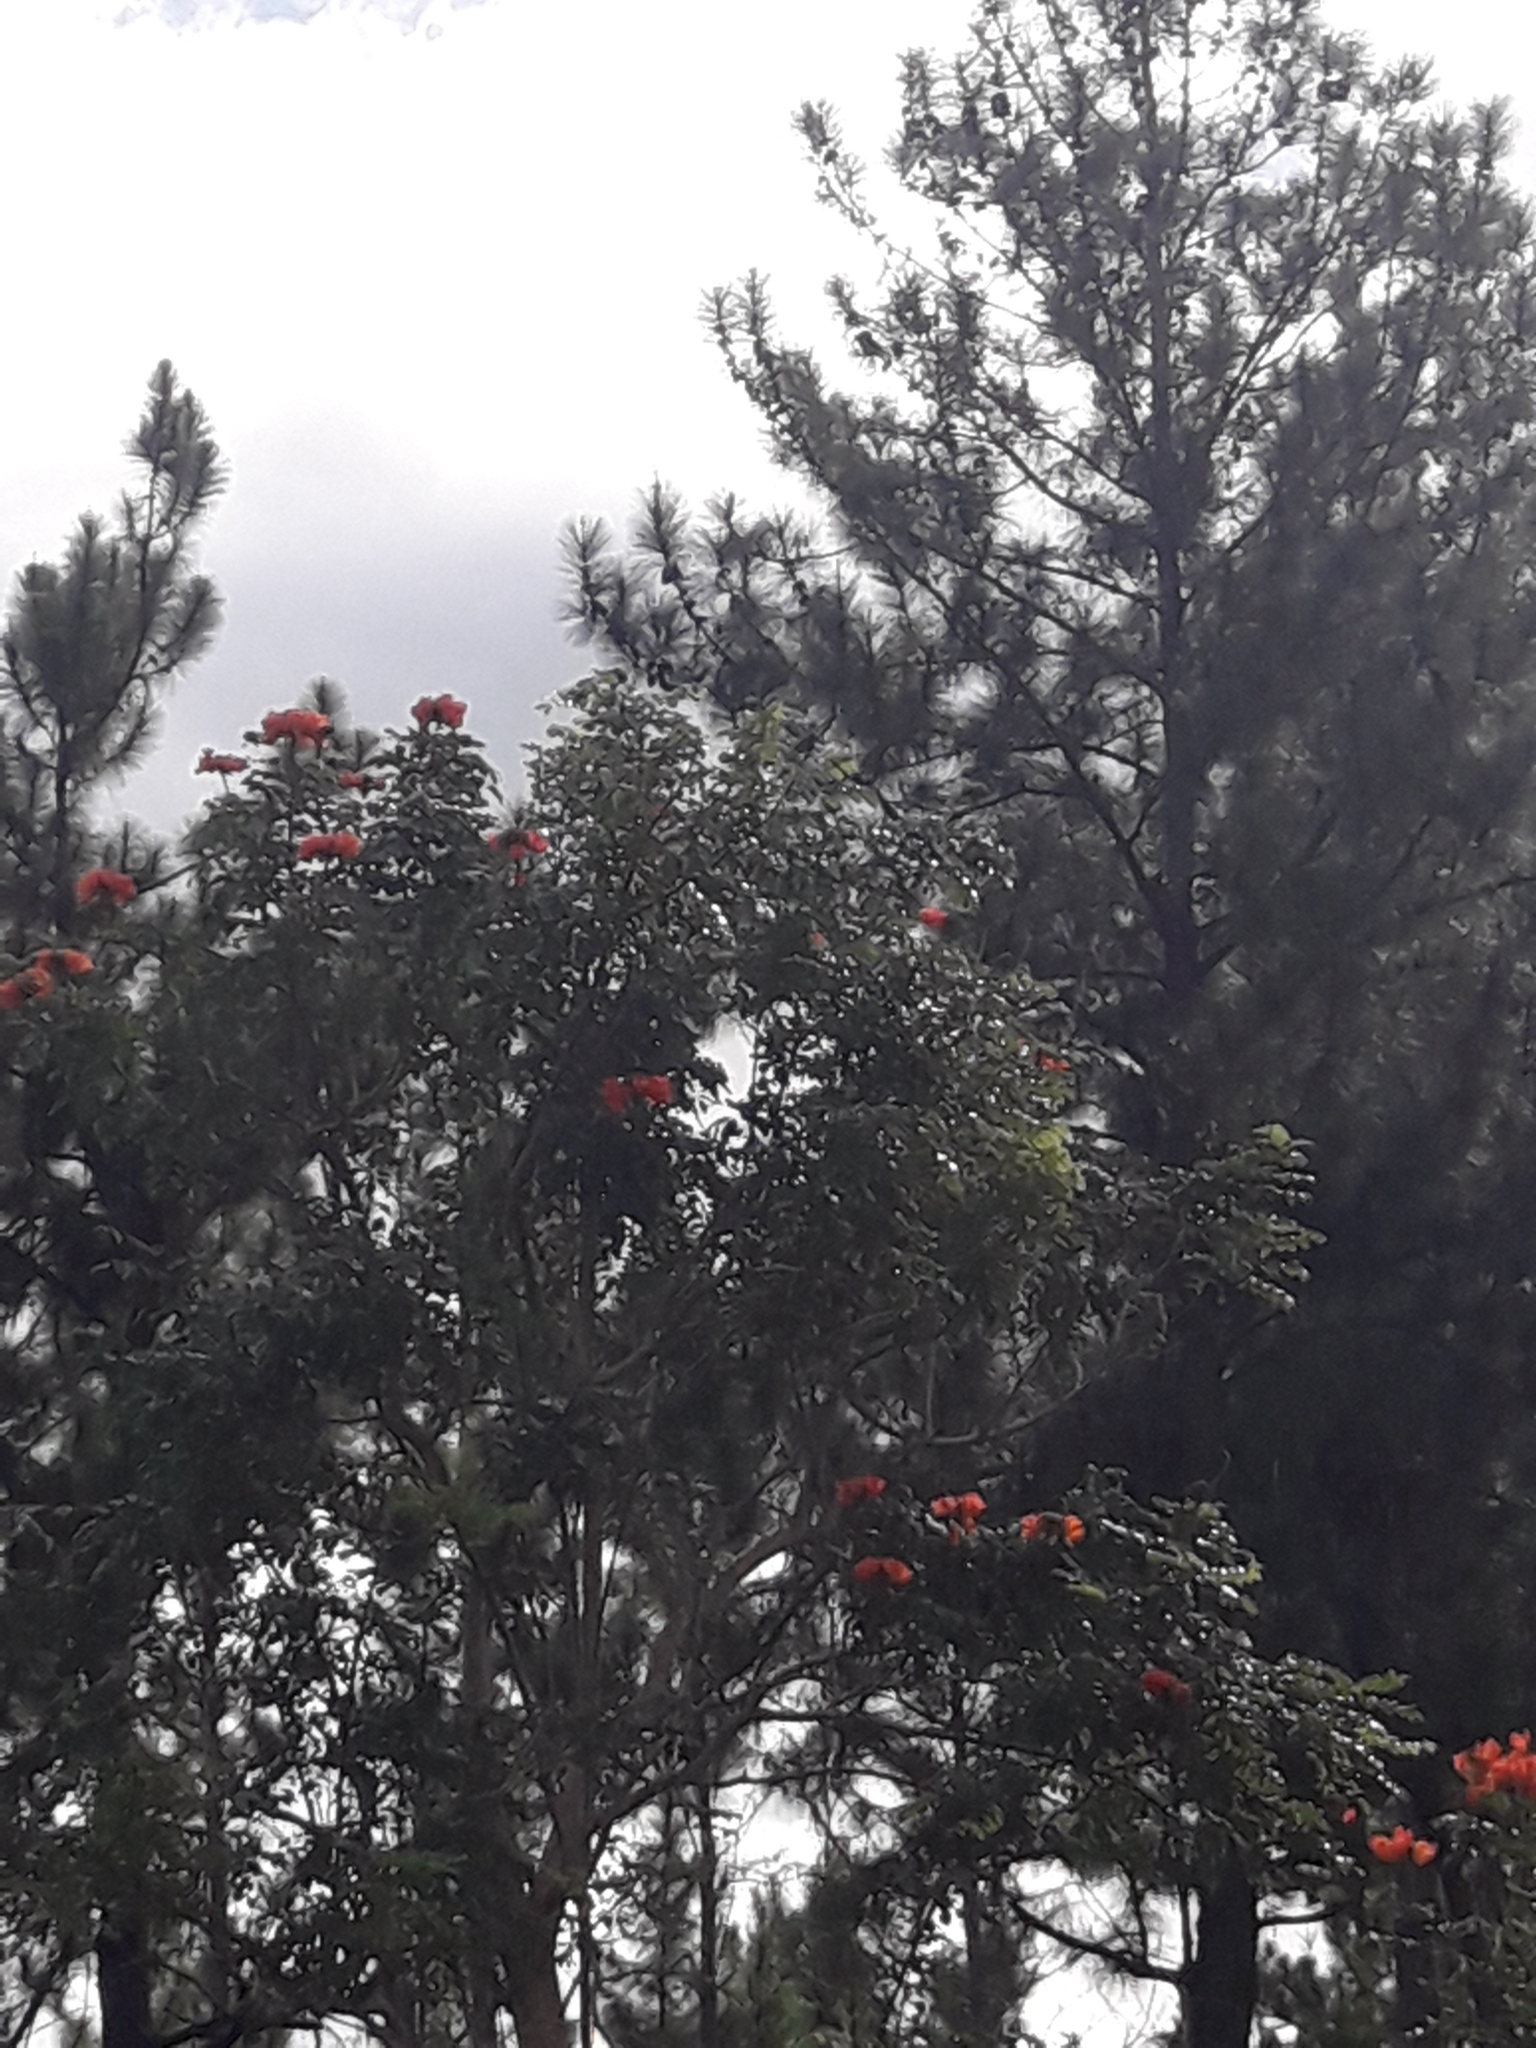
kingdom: Plantae
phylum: Tracheophyta
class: Magnoliopsida
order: Lamiales
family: Bignoniaceae
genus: Spathodea
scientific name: Spathodea campanulata
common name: African tuliptree
